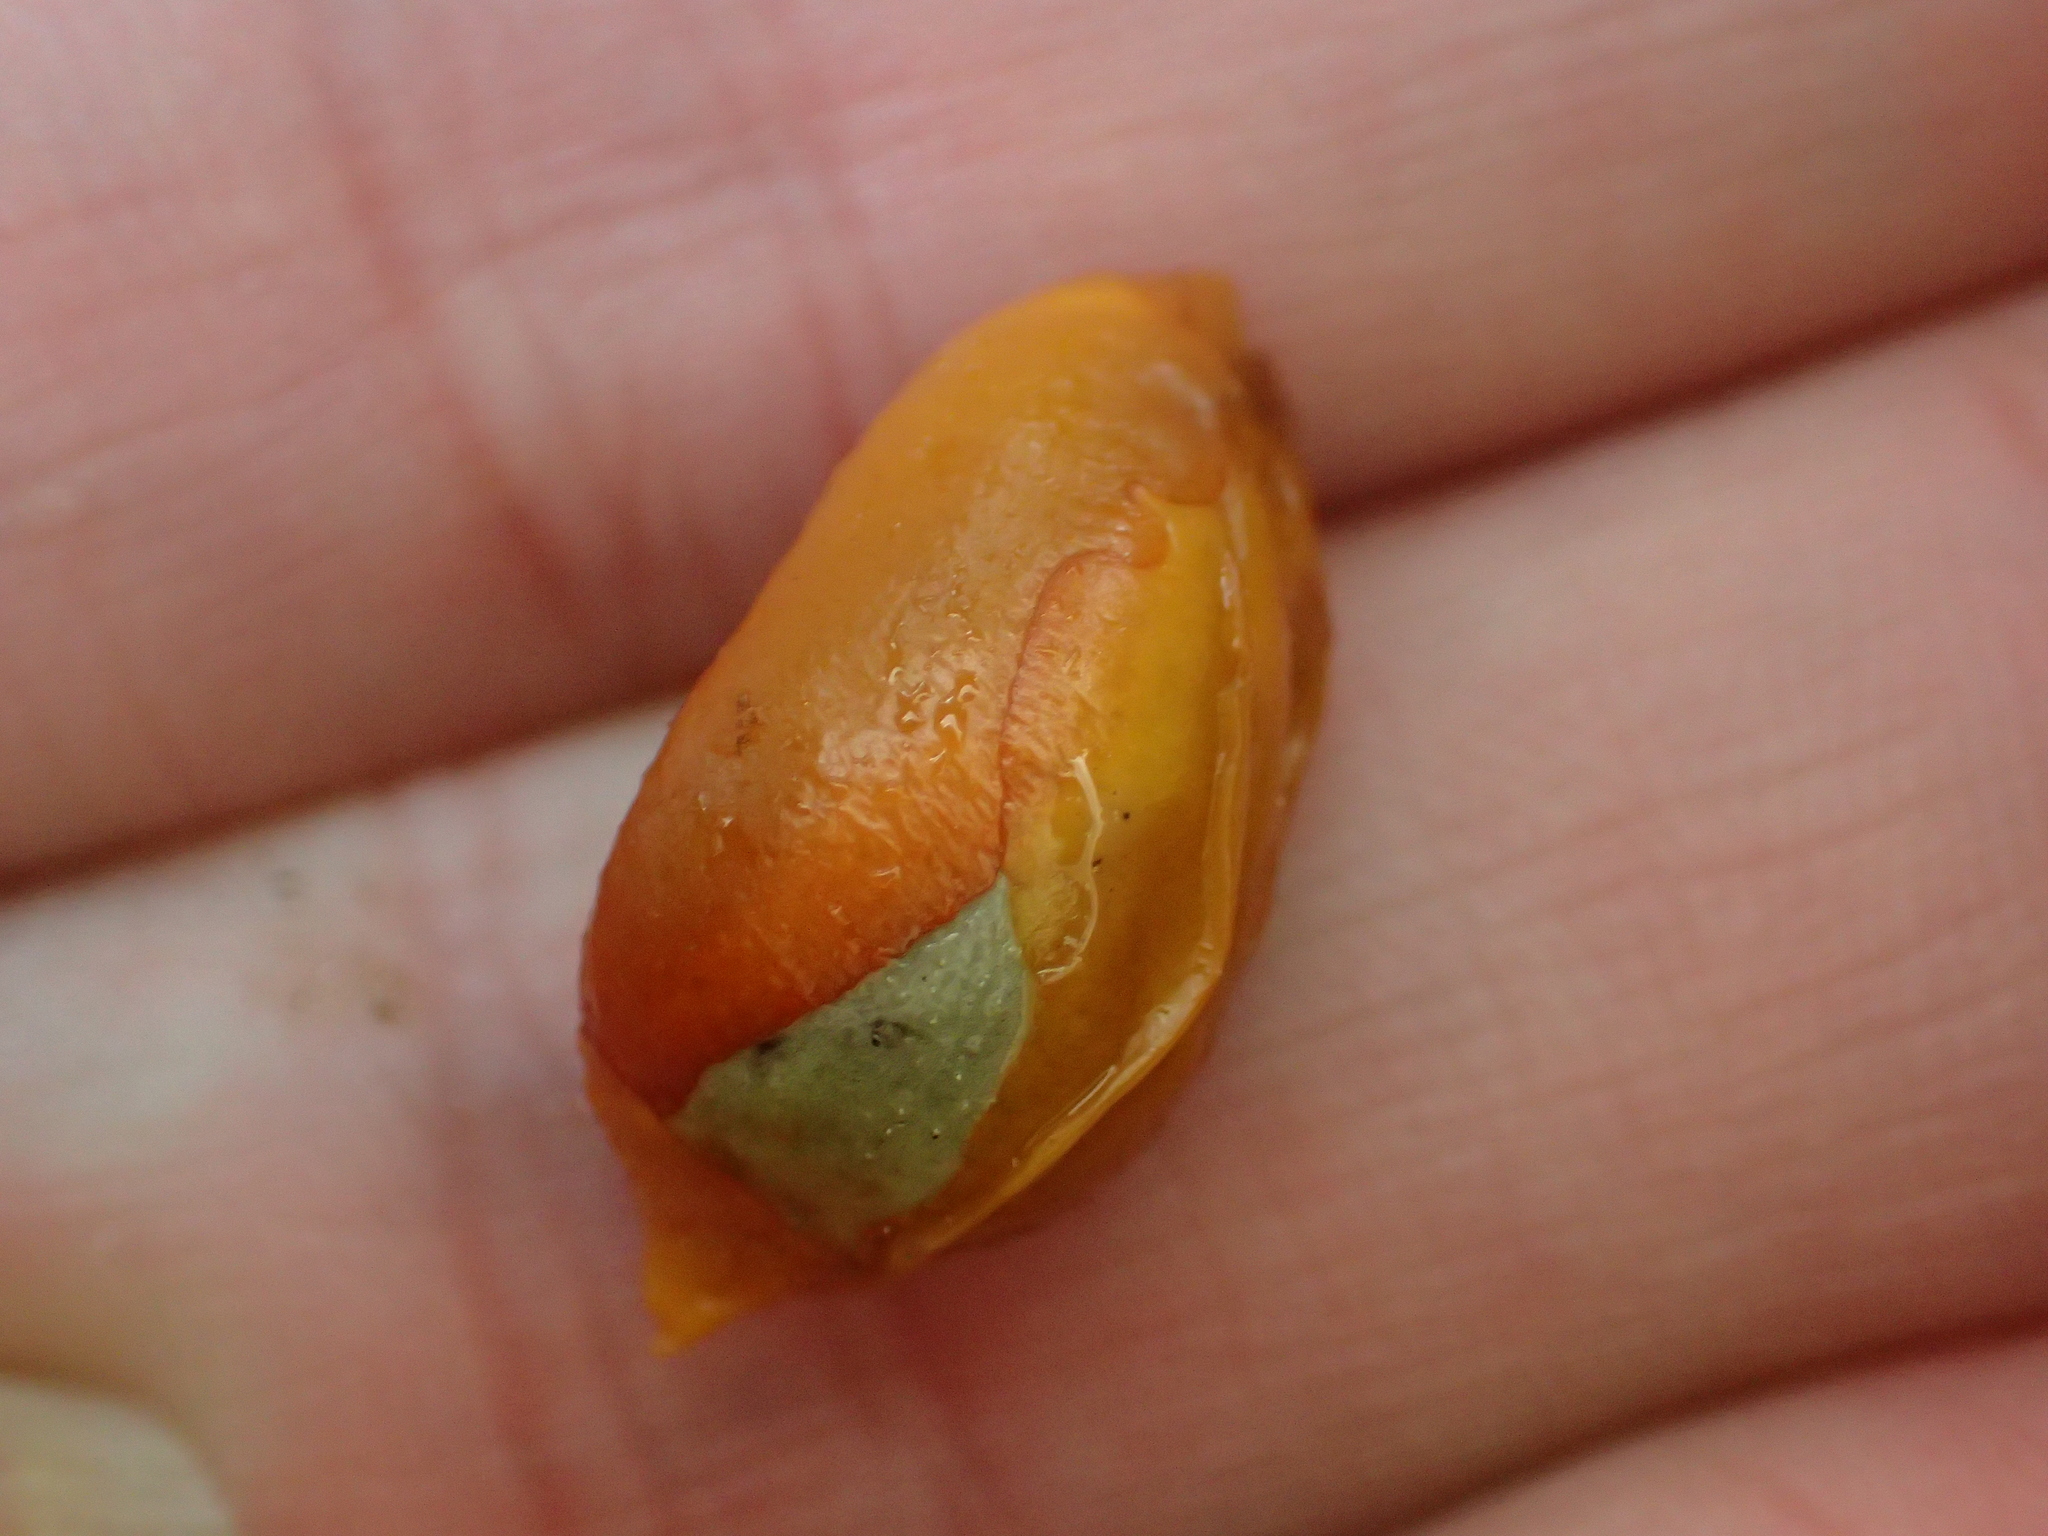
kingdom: Plantae
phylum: Tracheophyta
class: Magnoliopsida
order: Sapindales
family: Meliaceae
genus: Didymocheton
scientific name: Didymocheton spectabilis
